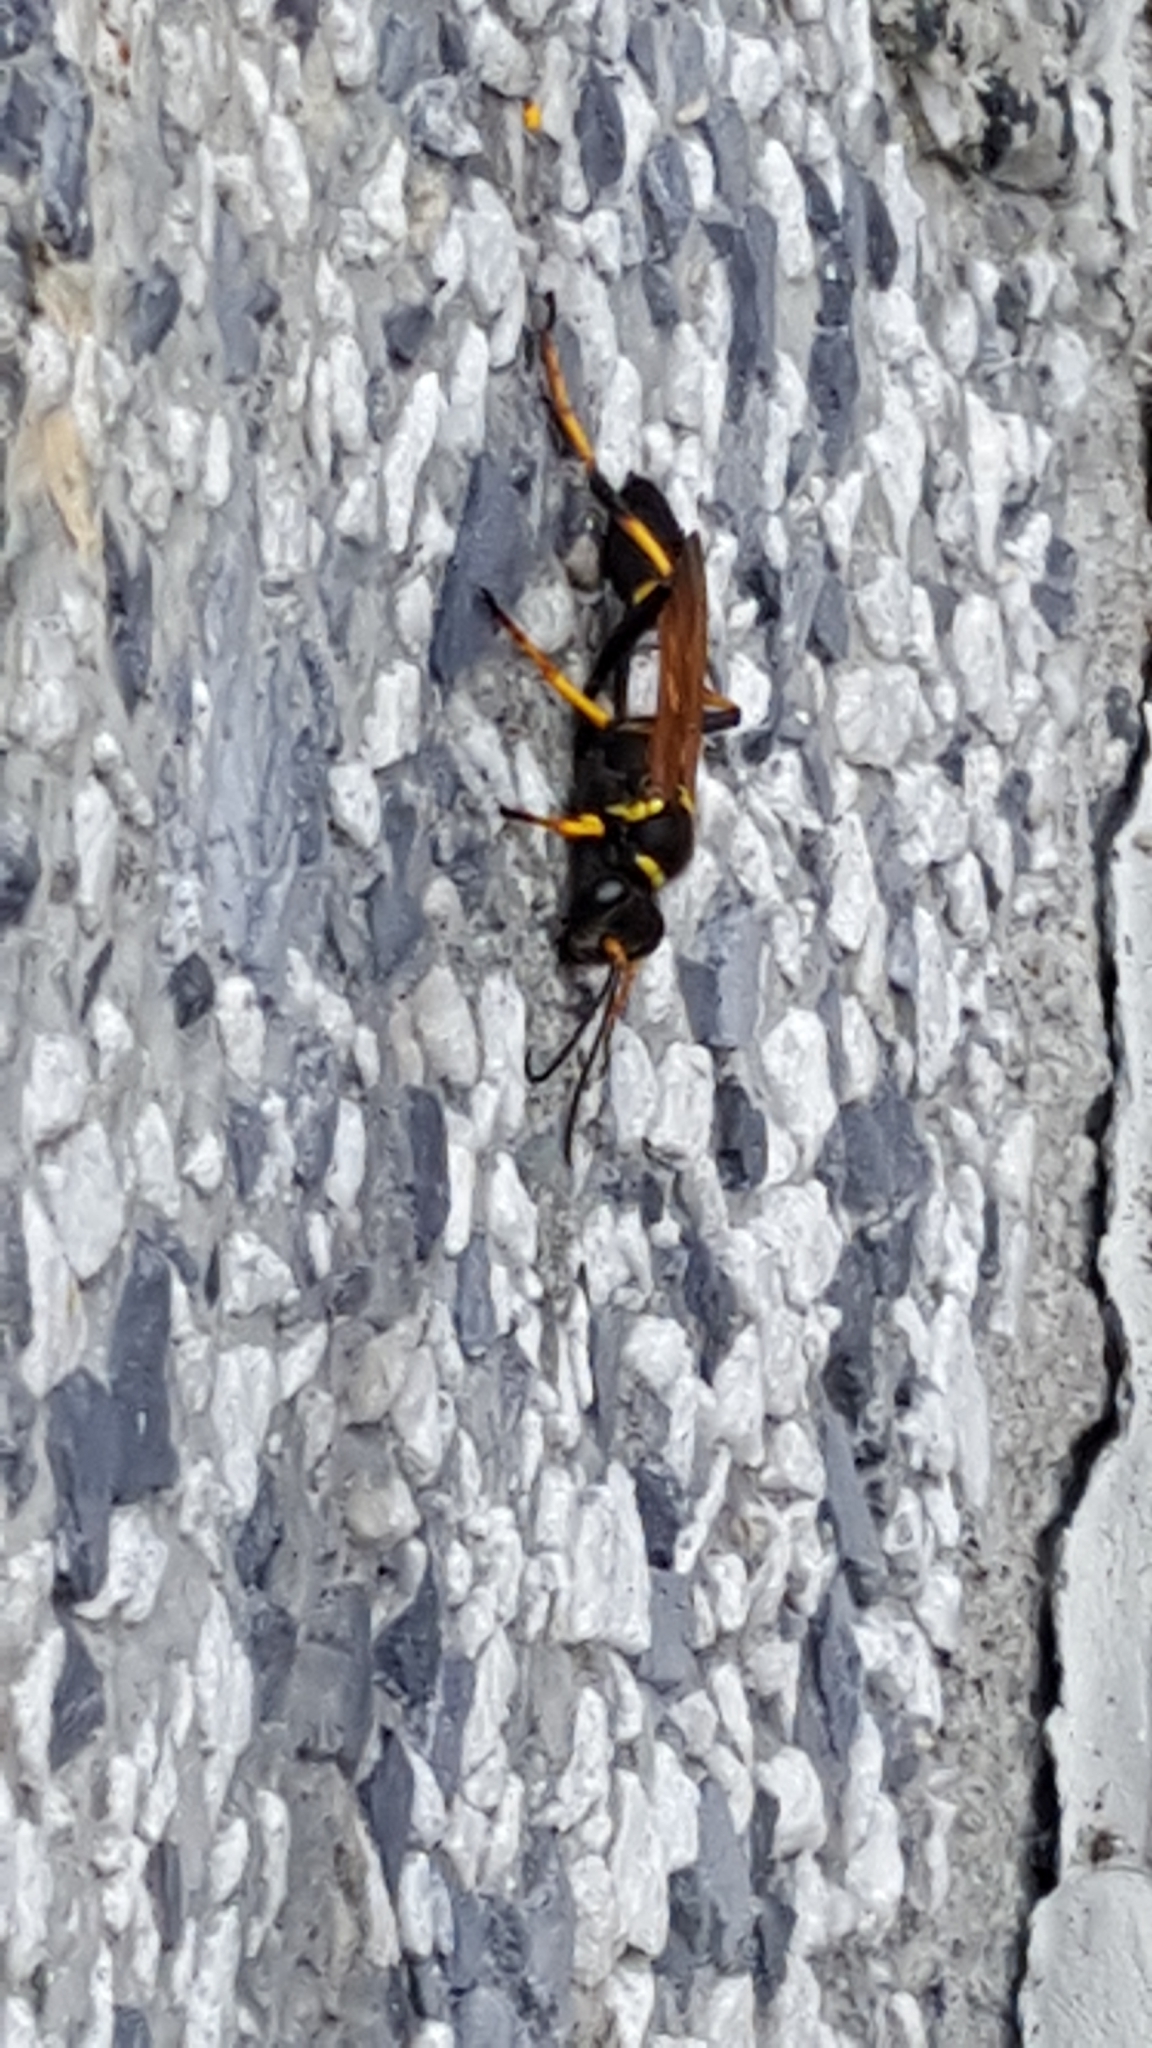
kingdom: Animalia
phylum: Arthropoda
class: Insecta
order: Hymenoptera
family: Sphecidae
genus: Sceliphron
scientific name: Sceliphron caementarium
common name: Mud dauber
